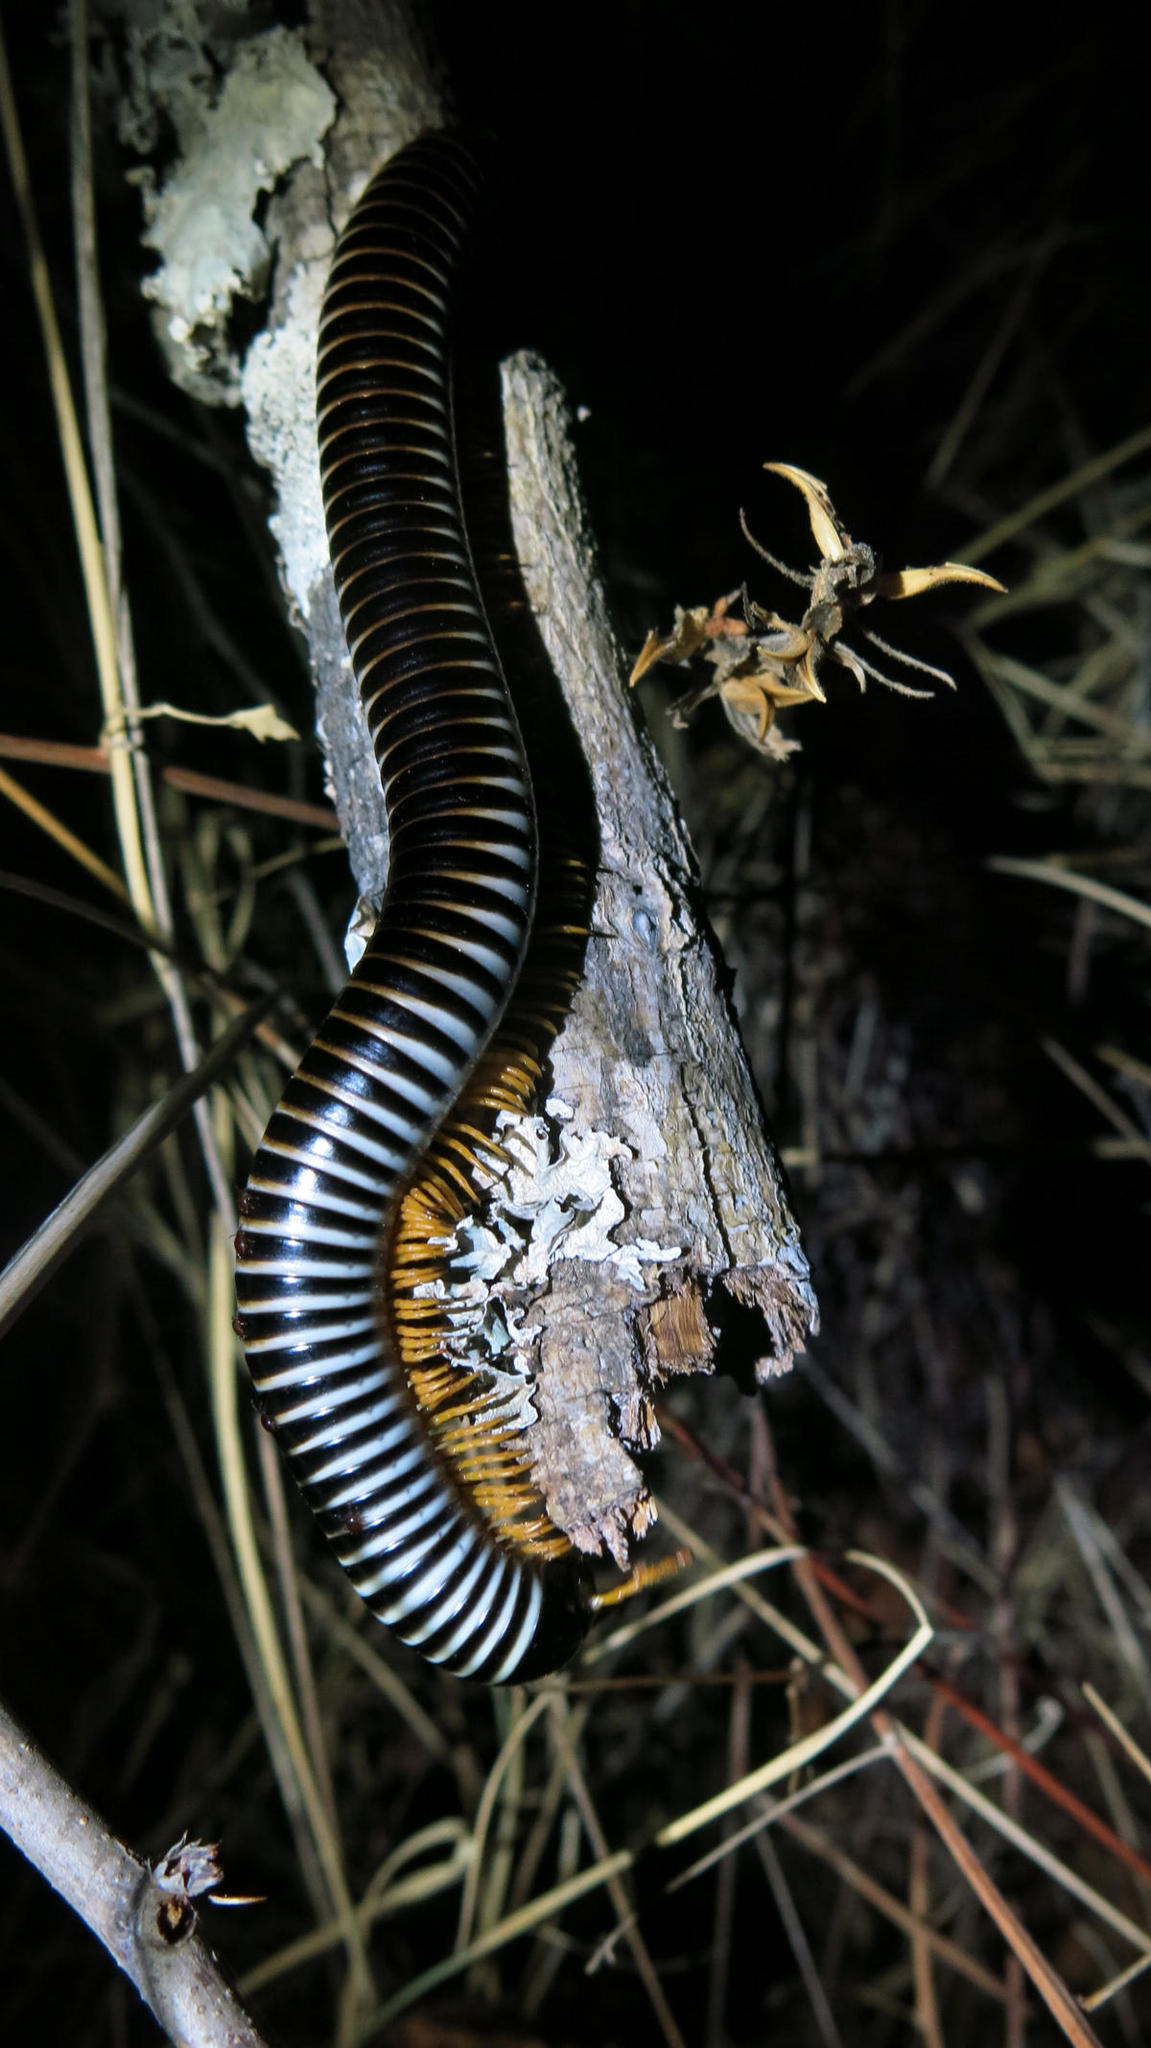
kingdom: Animalia
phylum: Arthropoda
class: Diplopoda
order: Spirostreptida
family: Spirostreptidae
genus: Doratogonus
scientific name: Doratogonus flavifilis
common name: Yellow-banded black millipede
